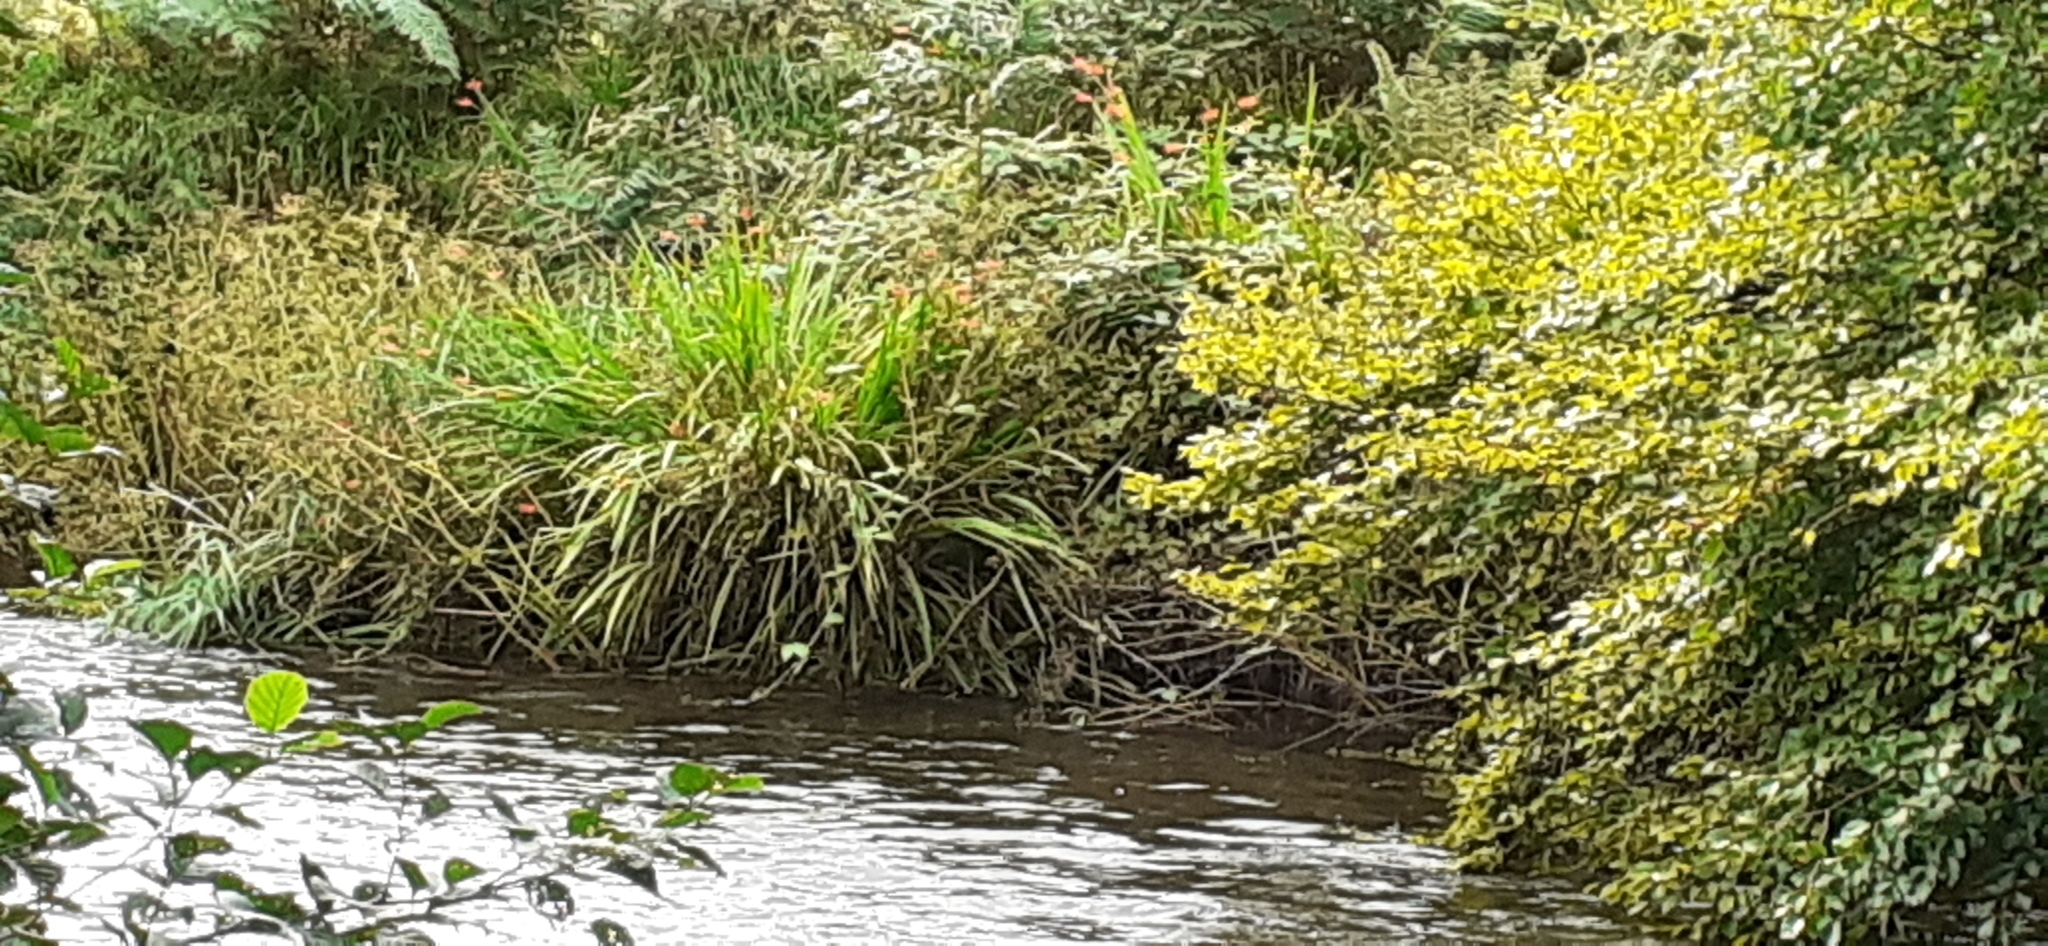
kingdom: Plantae
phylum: Tracheophyta
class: Liliopsida
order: Asparagales
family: Iridaceae
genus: Crocosmia
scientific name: Crocosmia crocosmiiflora
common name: Montbretia
